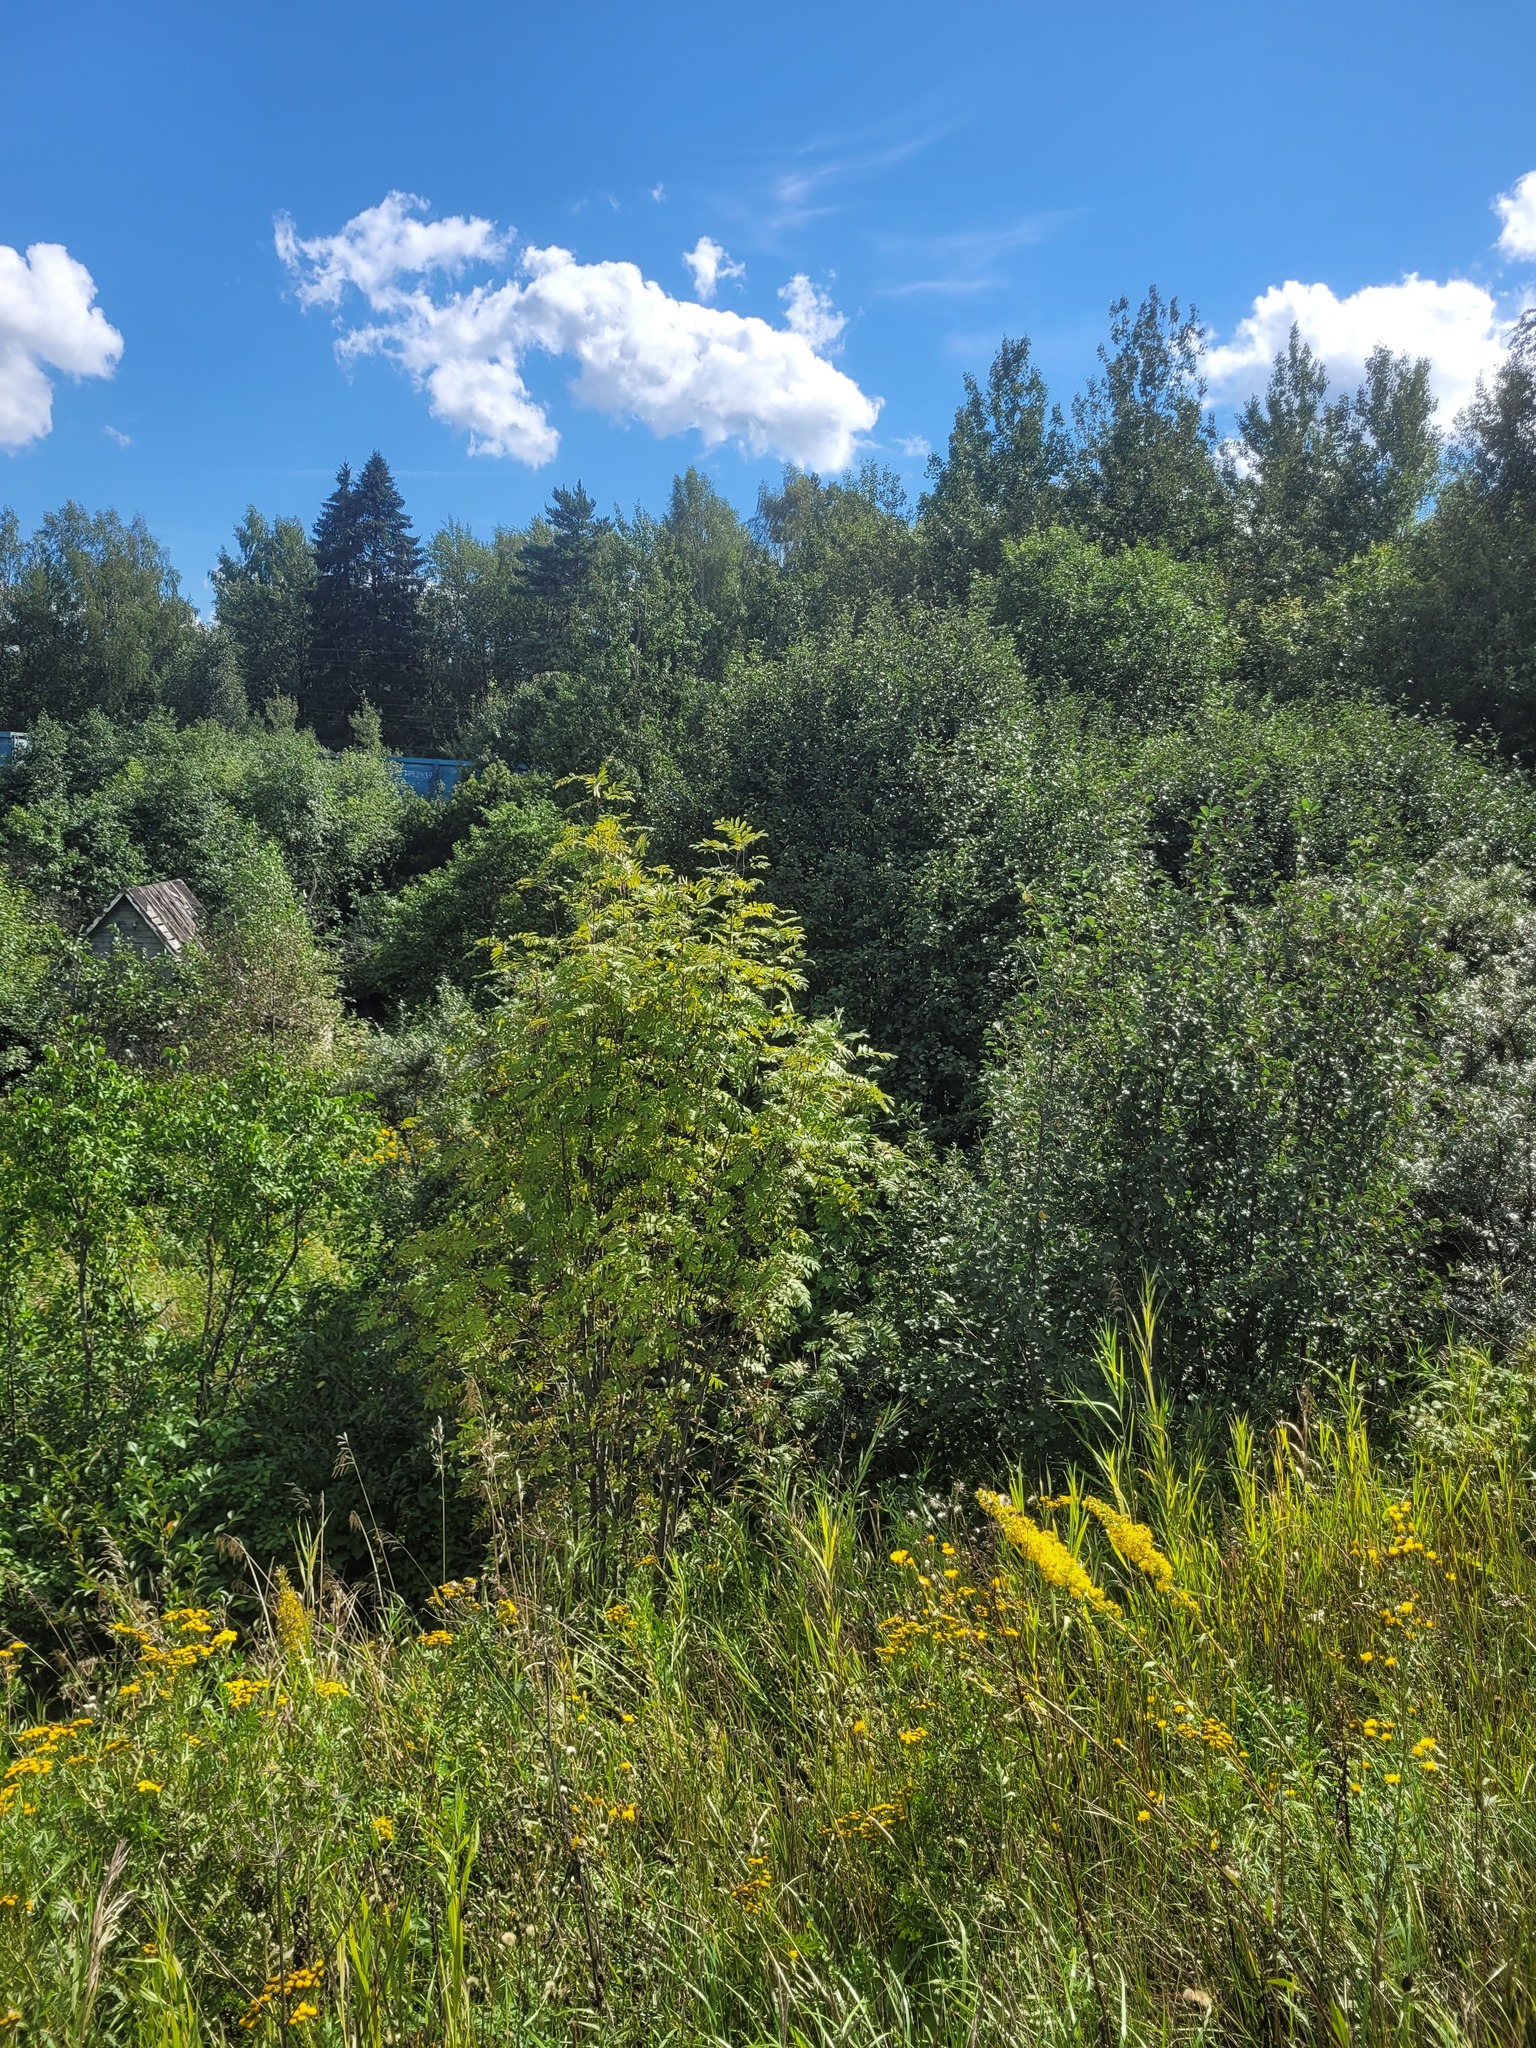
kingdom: Plantae
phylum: Tracheophyta
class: Magnoliopsida
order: Rosales
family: Rosaceae
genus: Sorbus
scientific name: Sorbus aucuparia
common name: Rowan
